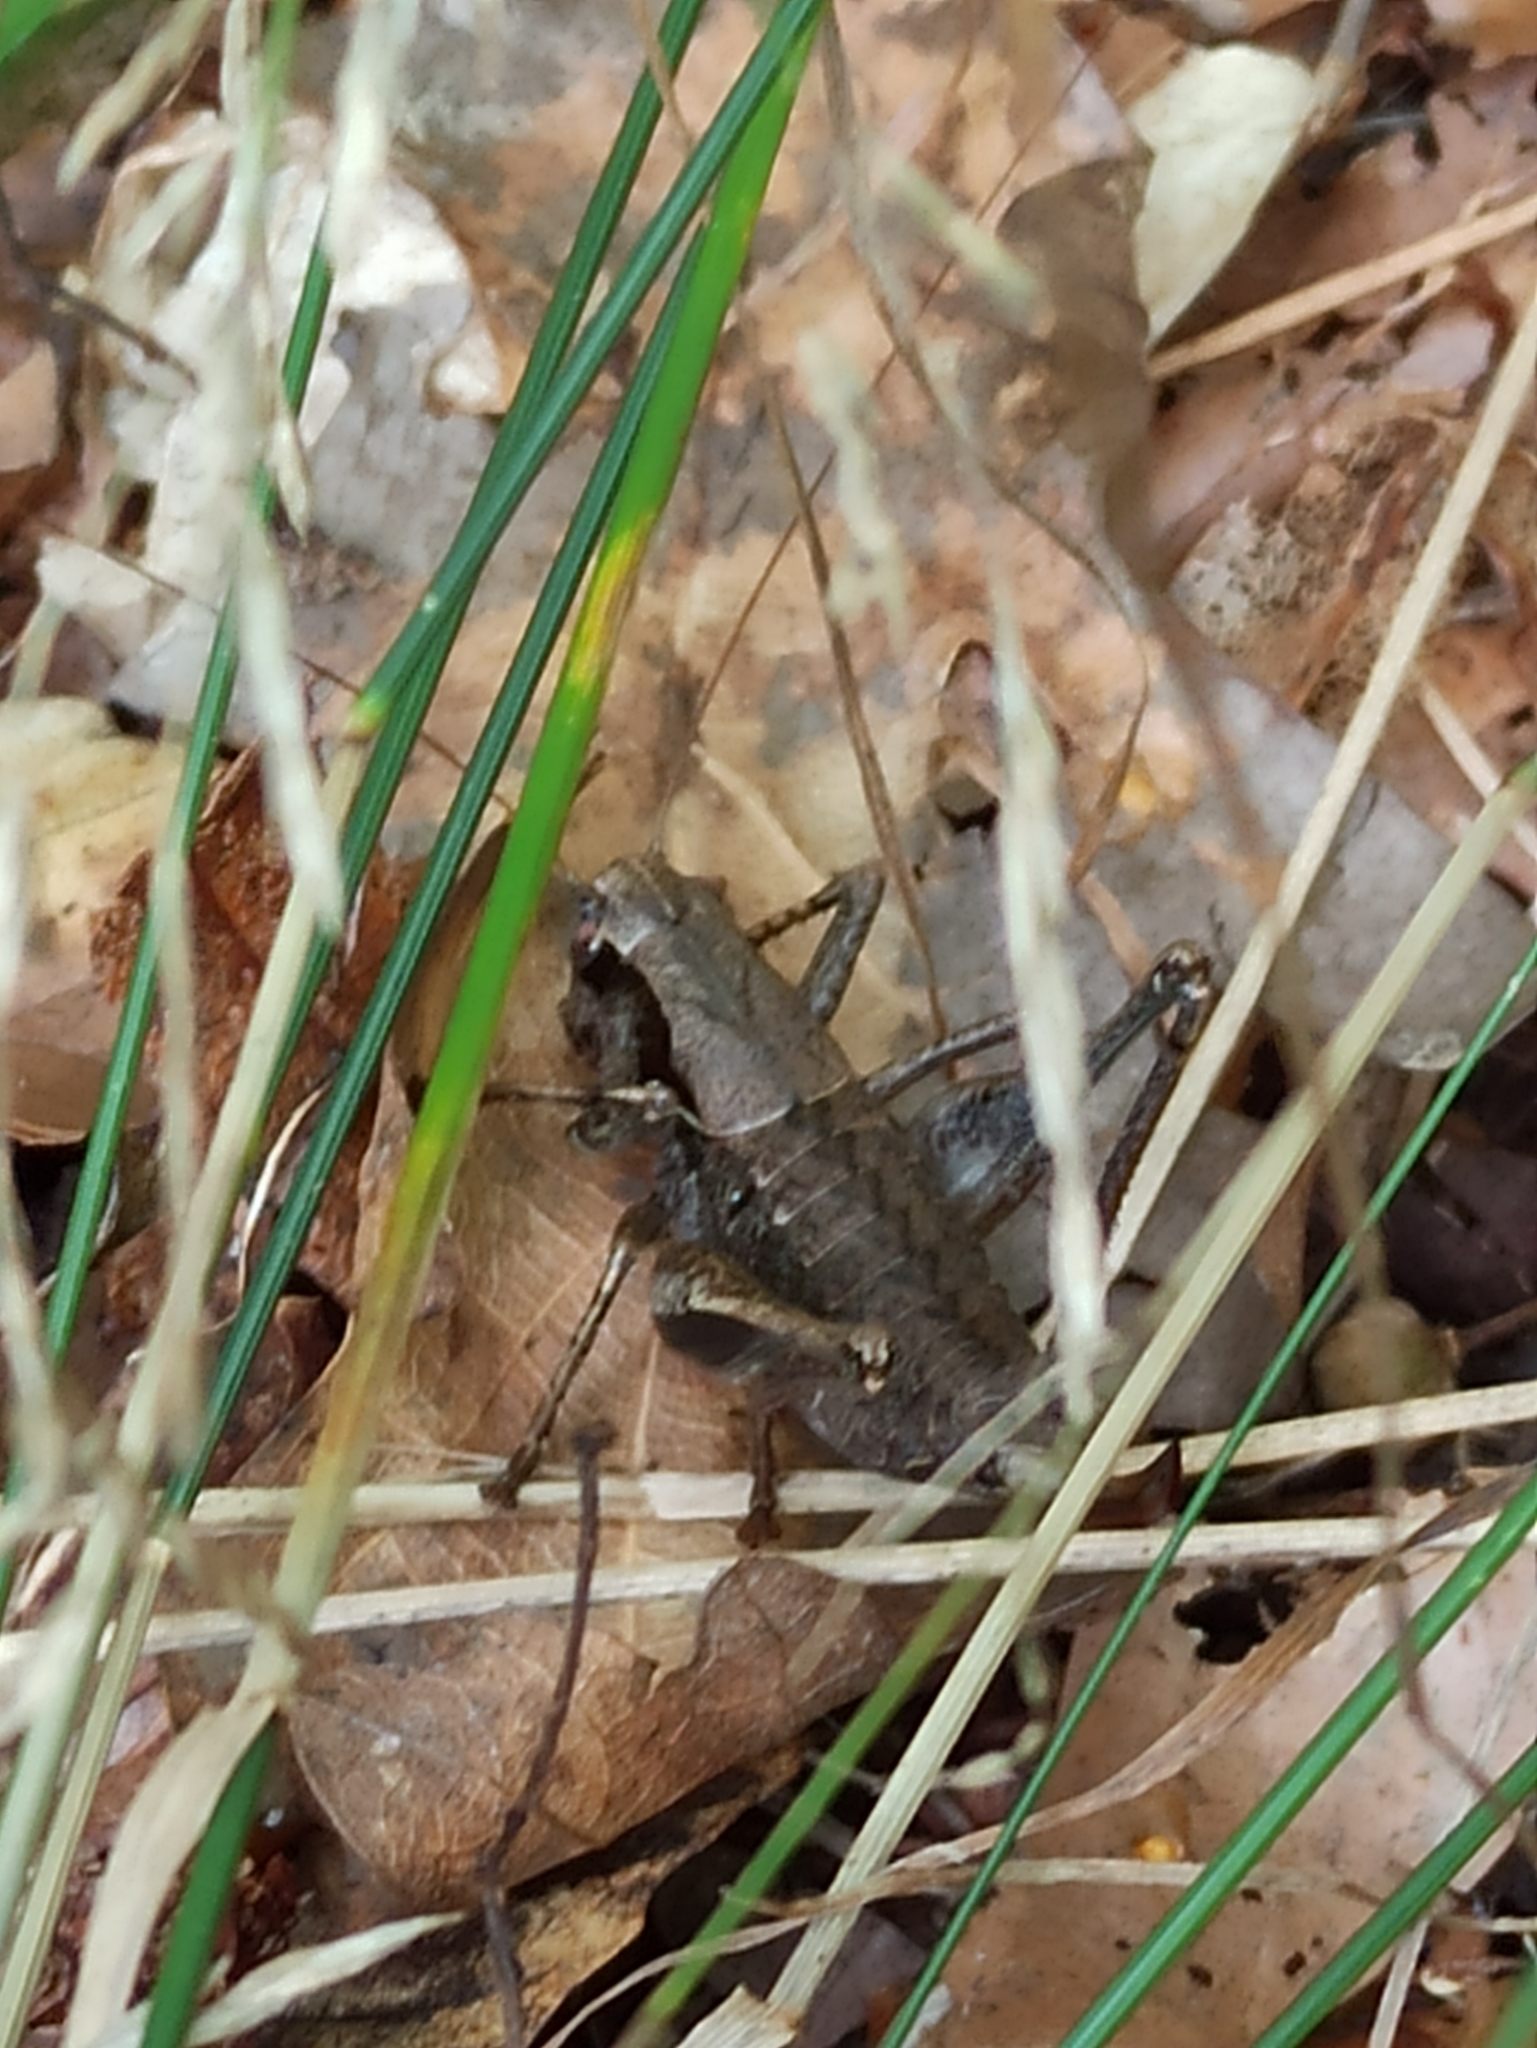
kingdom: Animalia
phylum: Arthropoda
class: Insecta
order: Orthoptera
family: Tettigoniidae
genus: Pholidoptera
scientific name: Pholidoptera griseoaptera
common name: Dark bush-cricket
